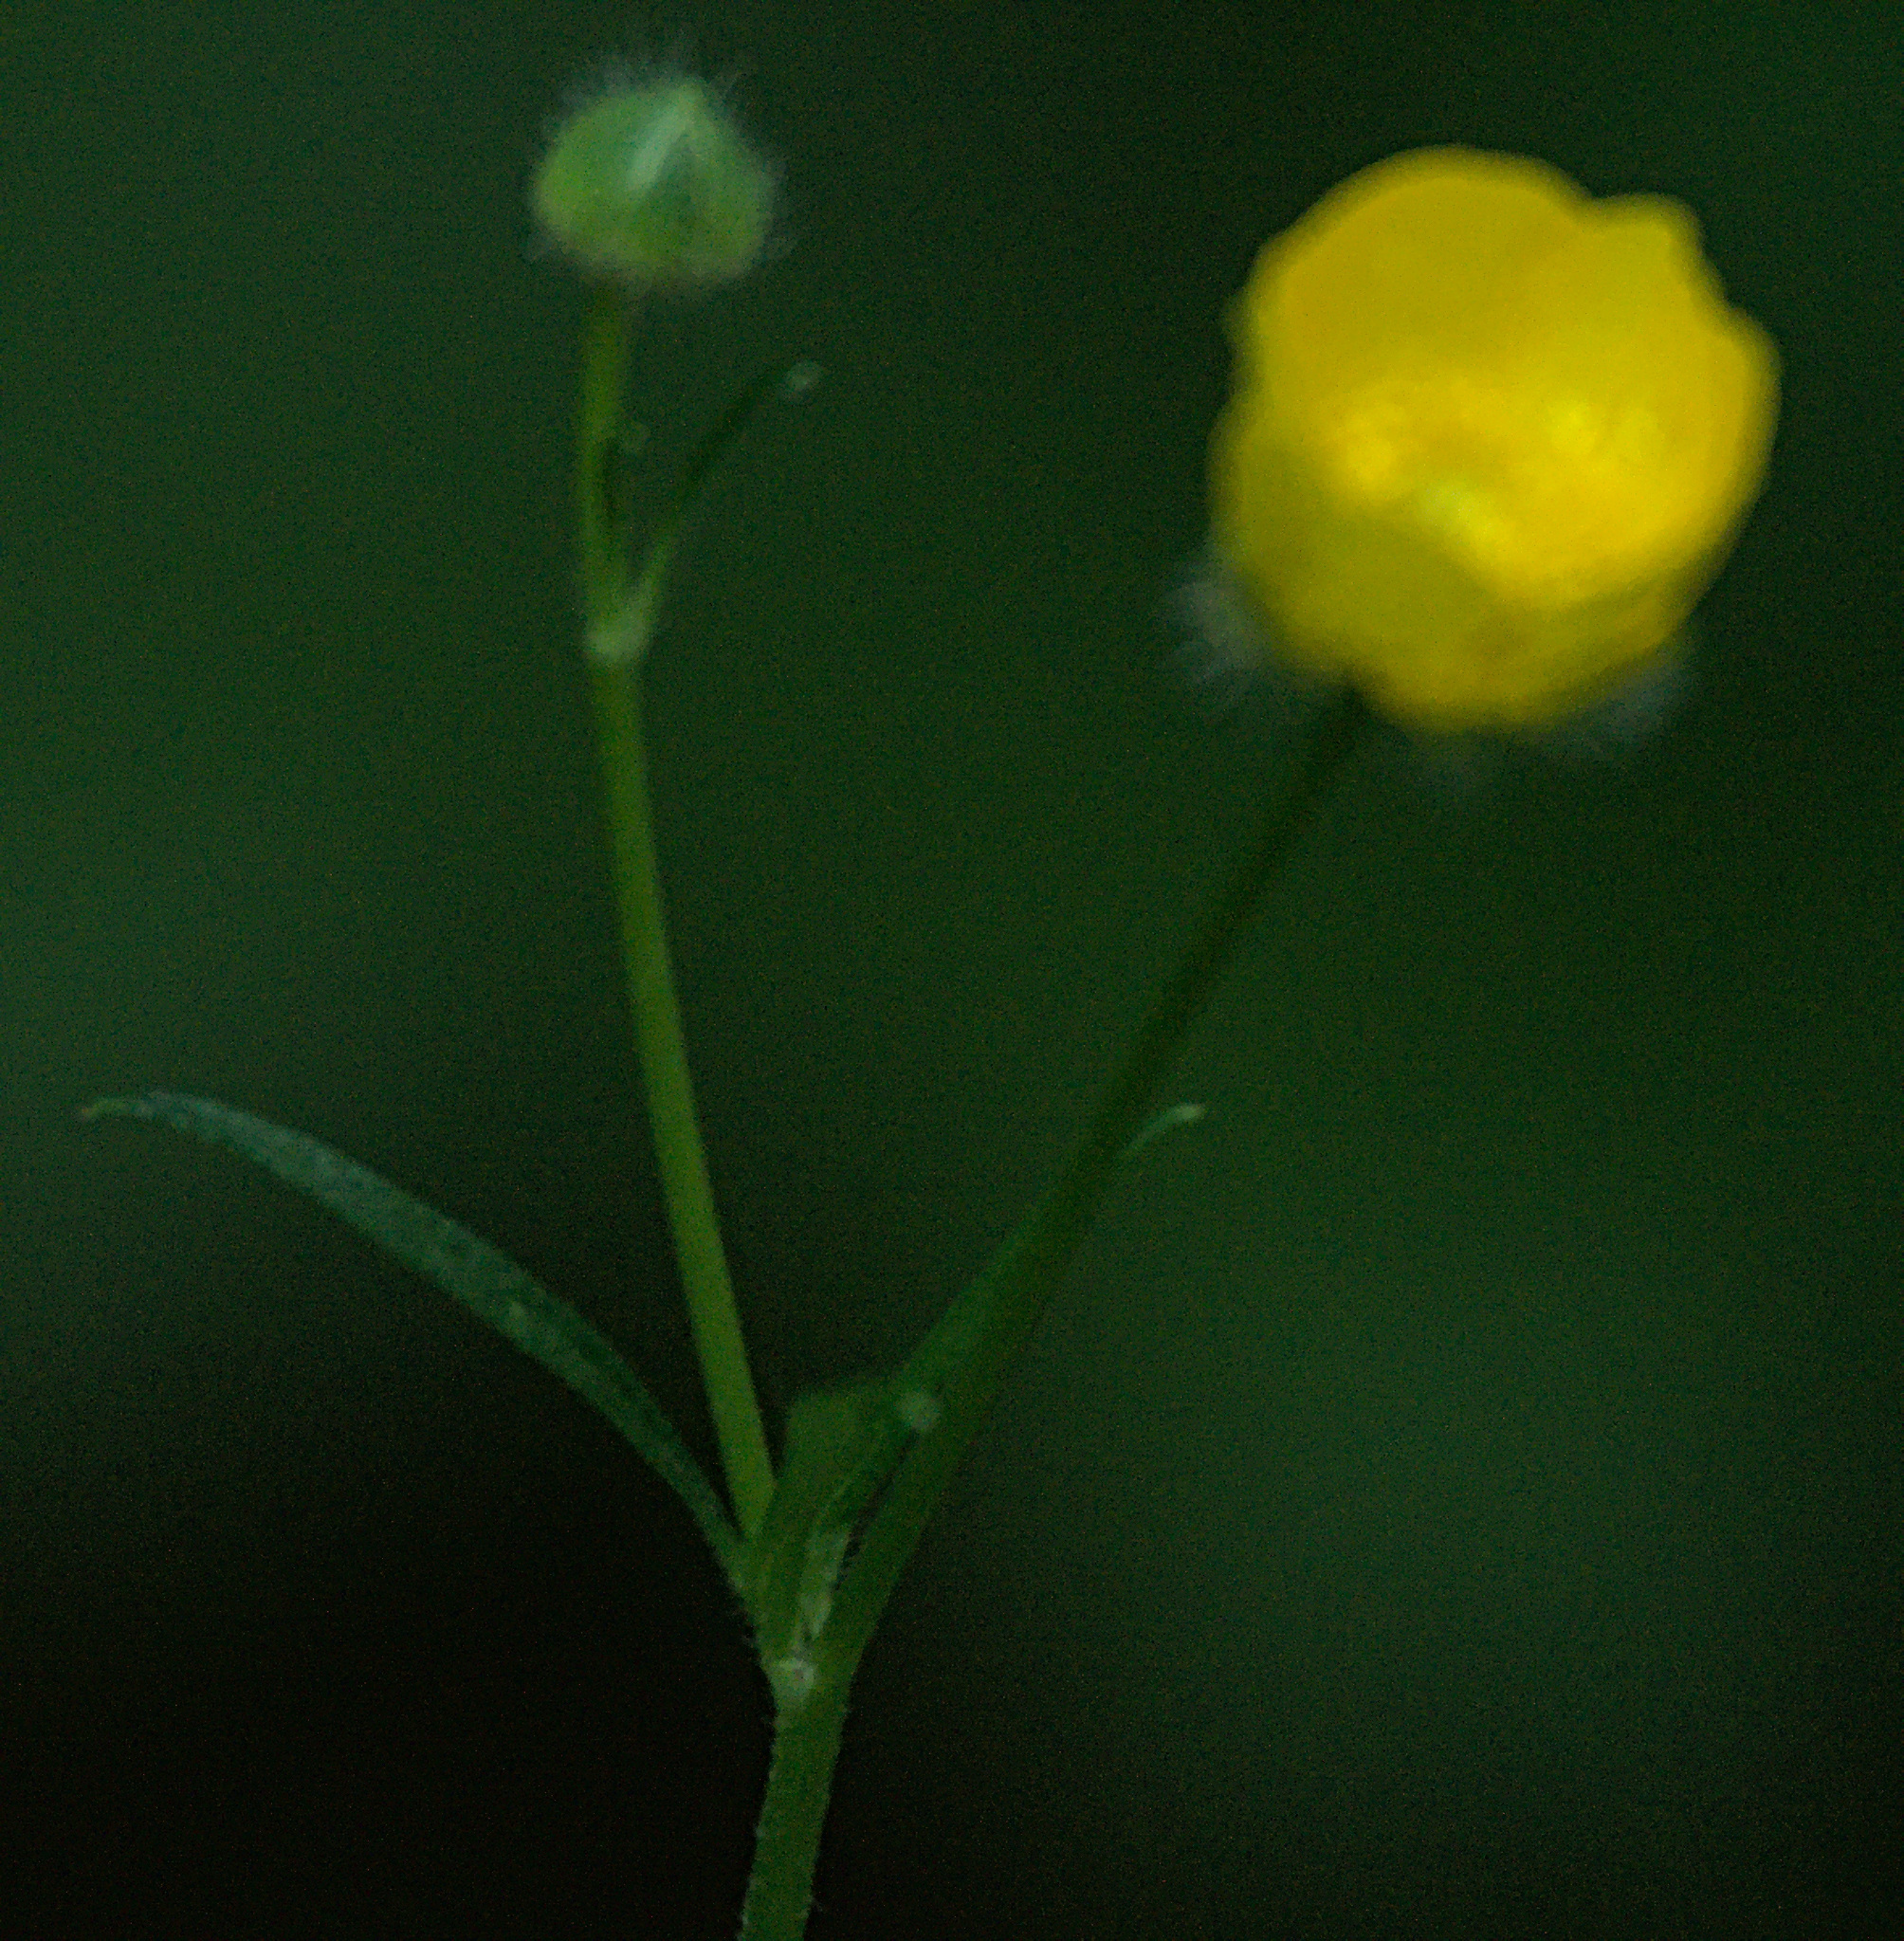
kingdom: Plantae
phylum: Tracheophyta
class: Magnoliopsida
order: Ranunculales
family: Ranunculaceae
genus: Ranunculus
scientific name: Ranunculus polyanthemos
